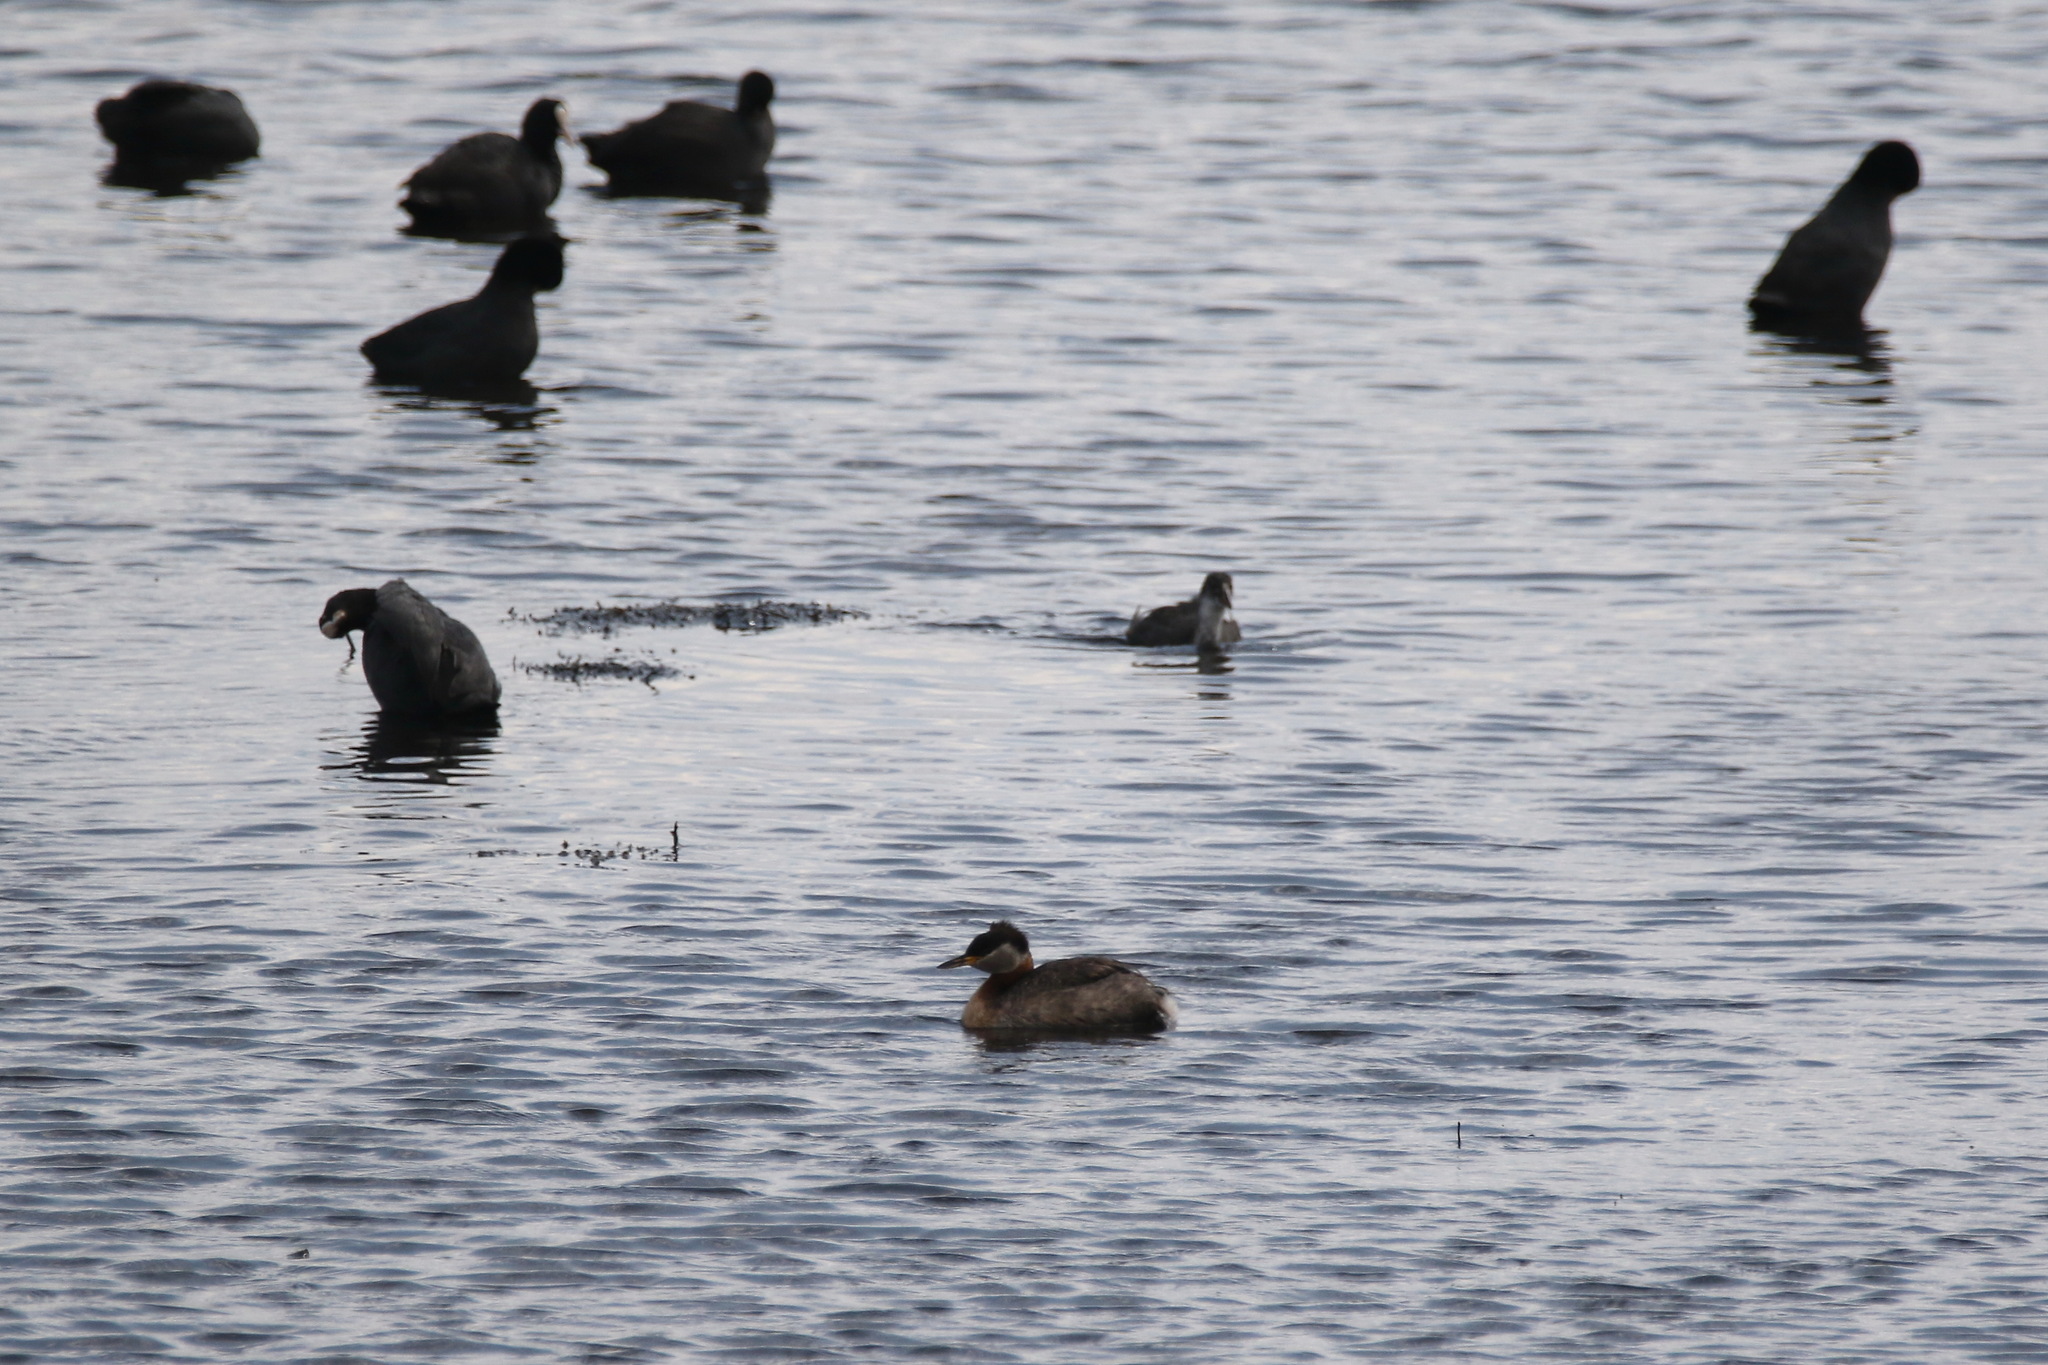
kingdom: Animalia
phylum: Chordata
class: Aves
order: Gruiformes
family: Rallidae
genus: Fulica
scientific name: Fulica atra
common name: Eurasian coot
